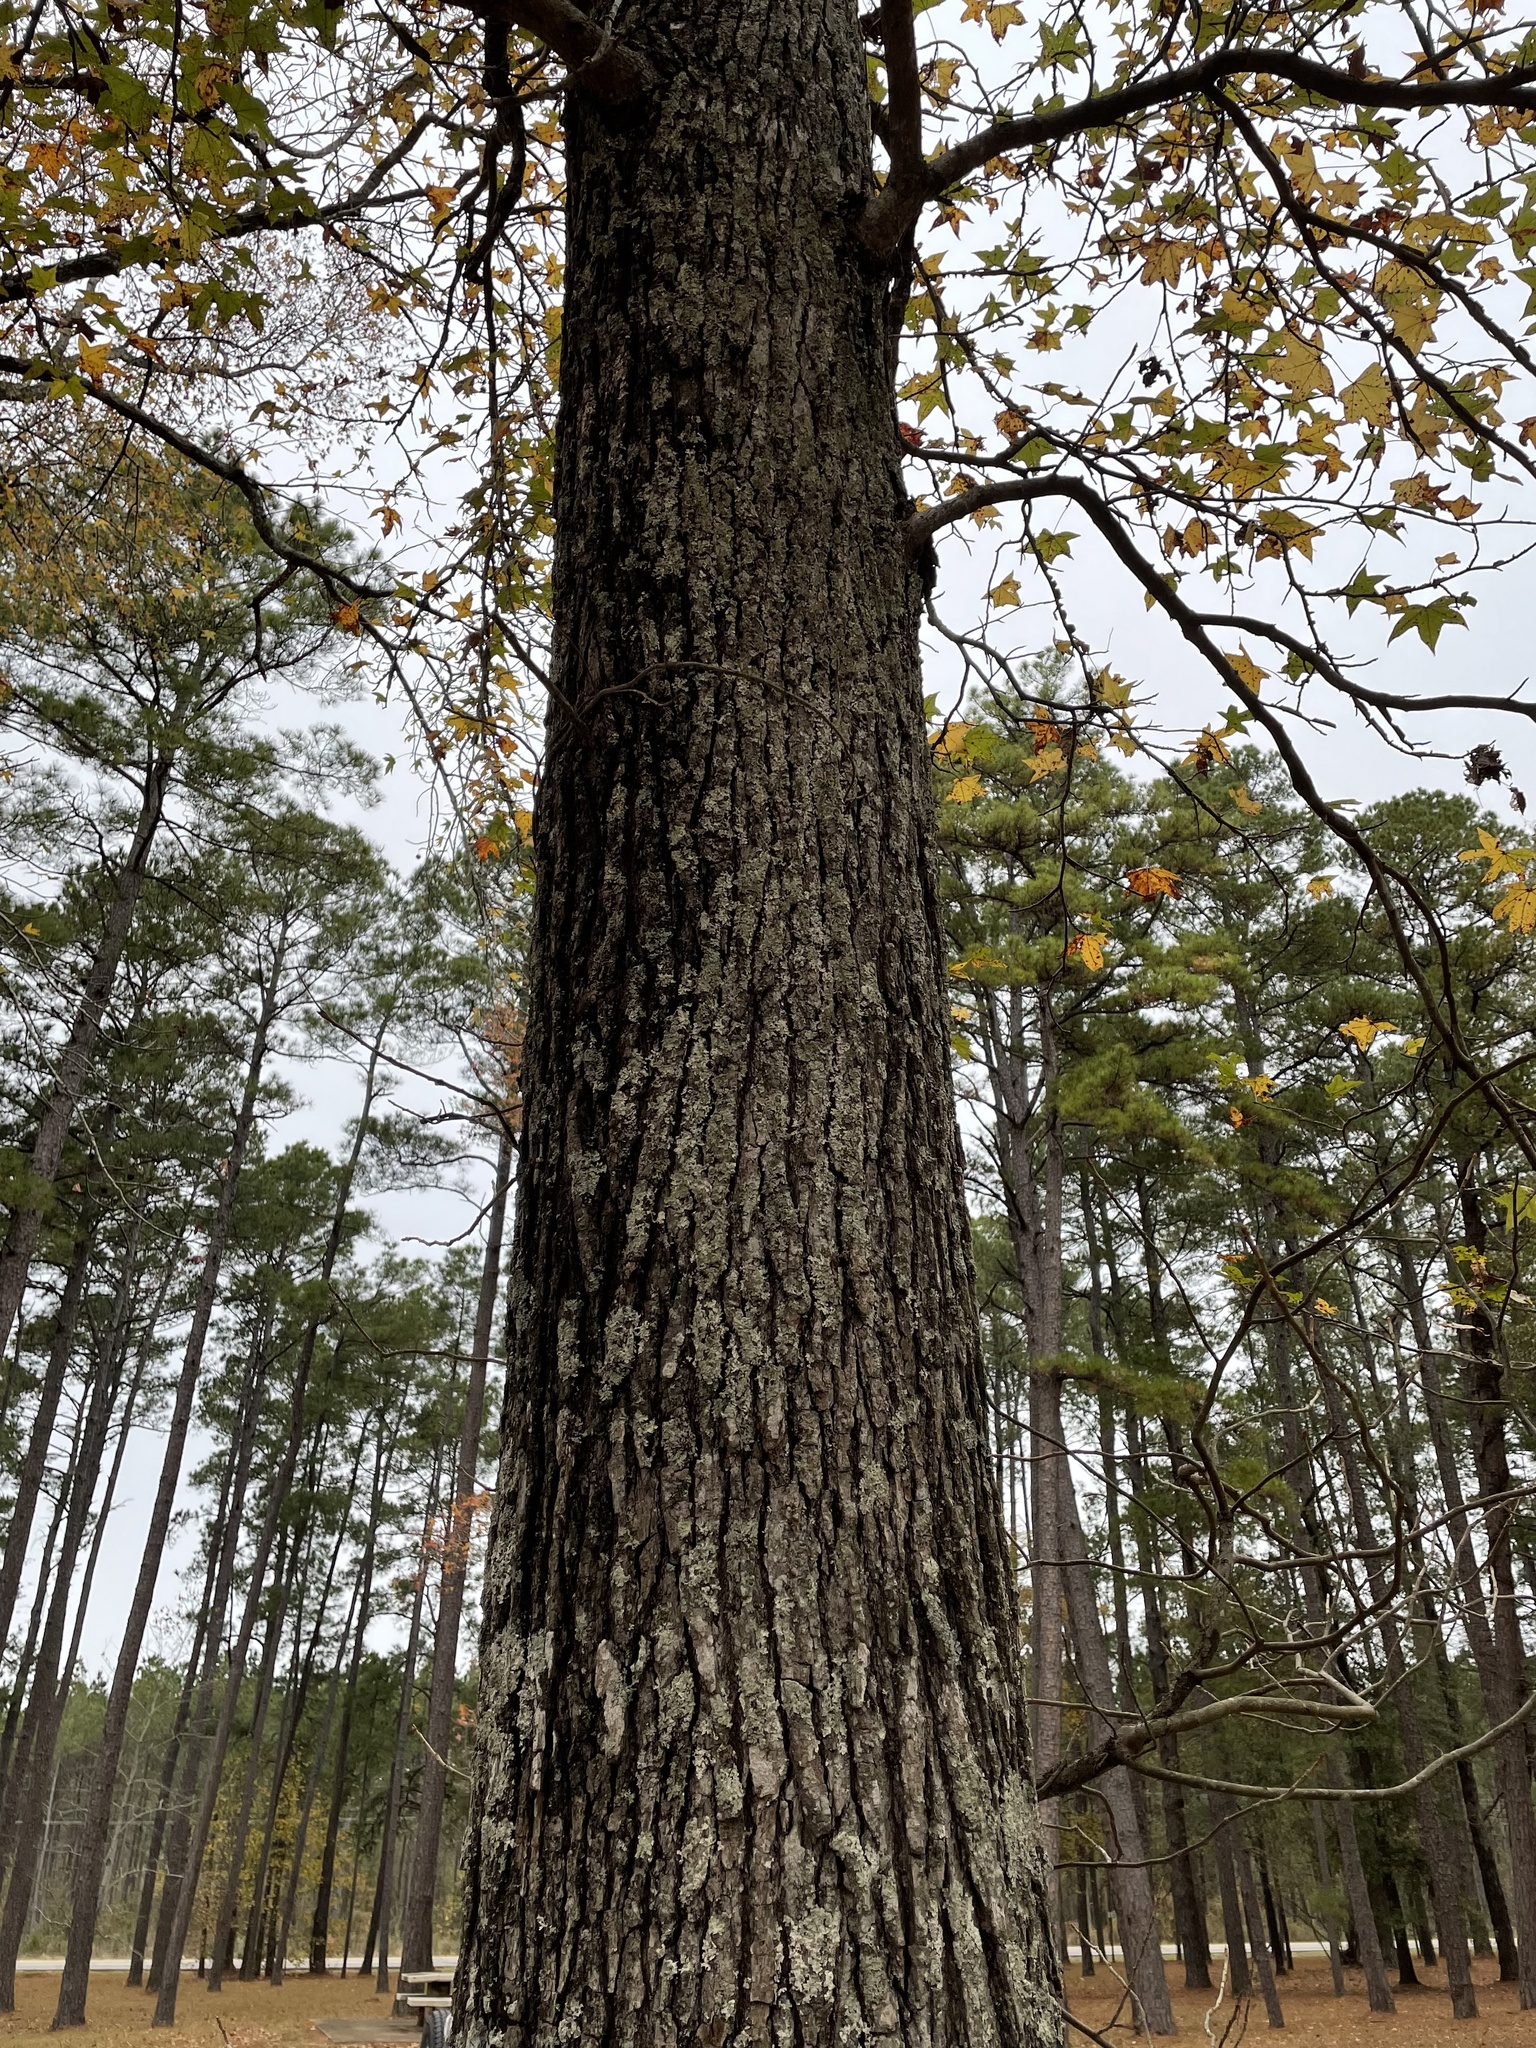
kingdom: Plantae
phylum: Tracheophyta
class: Magnoliopsida
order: Saxifragales
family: Altingiaceae
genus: Liquidambar
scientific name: Liquidambar styraciflua
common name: Sweet gum
